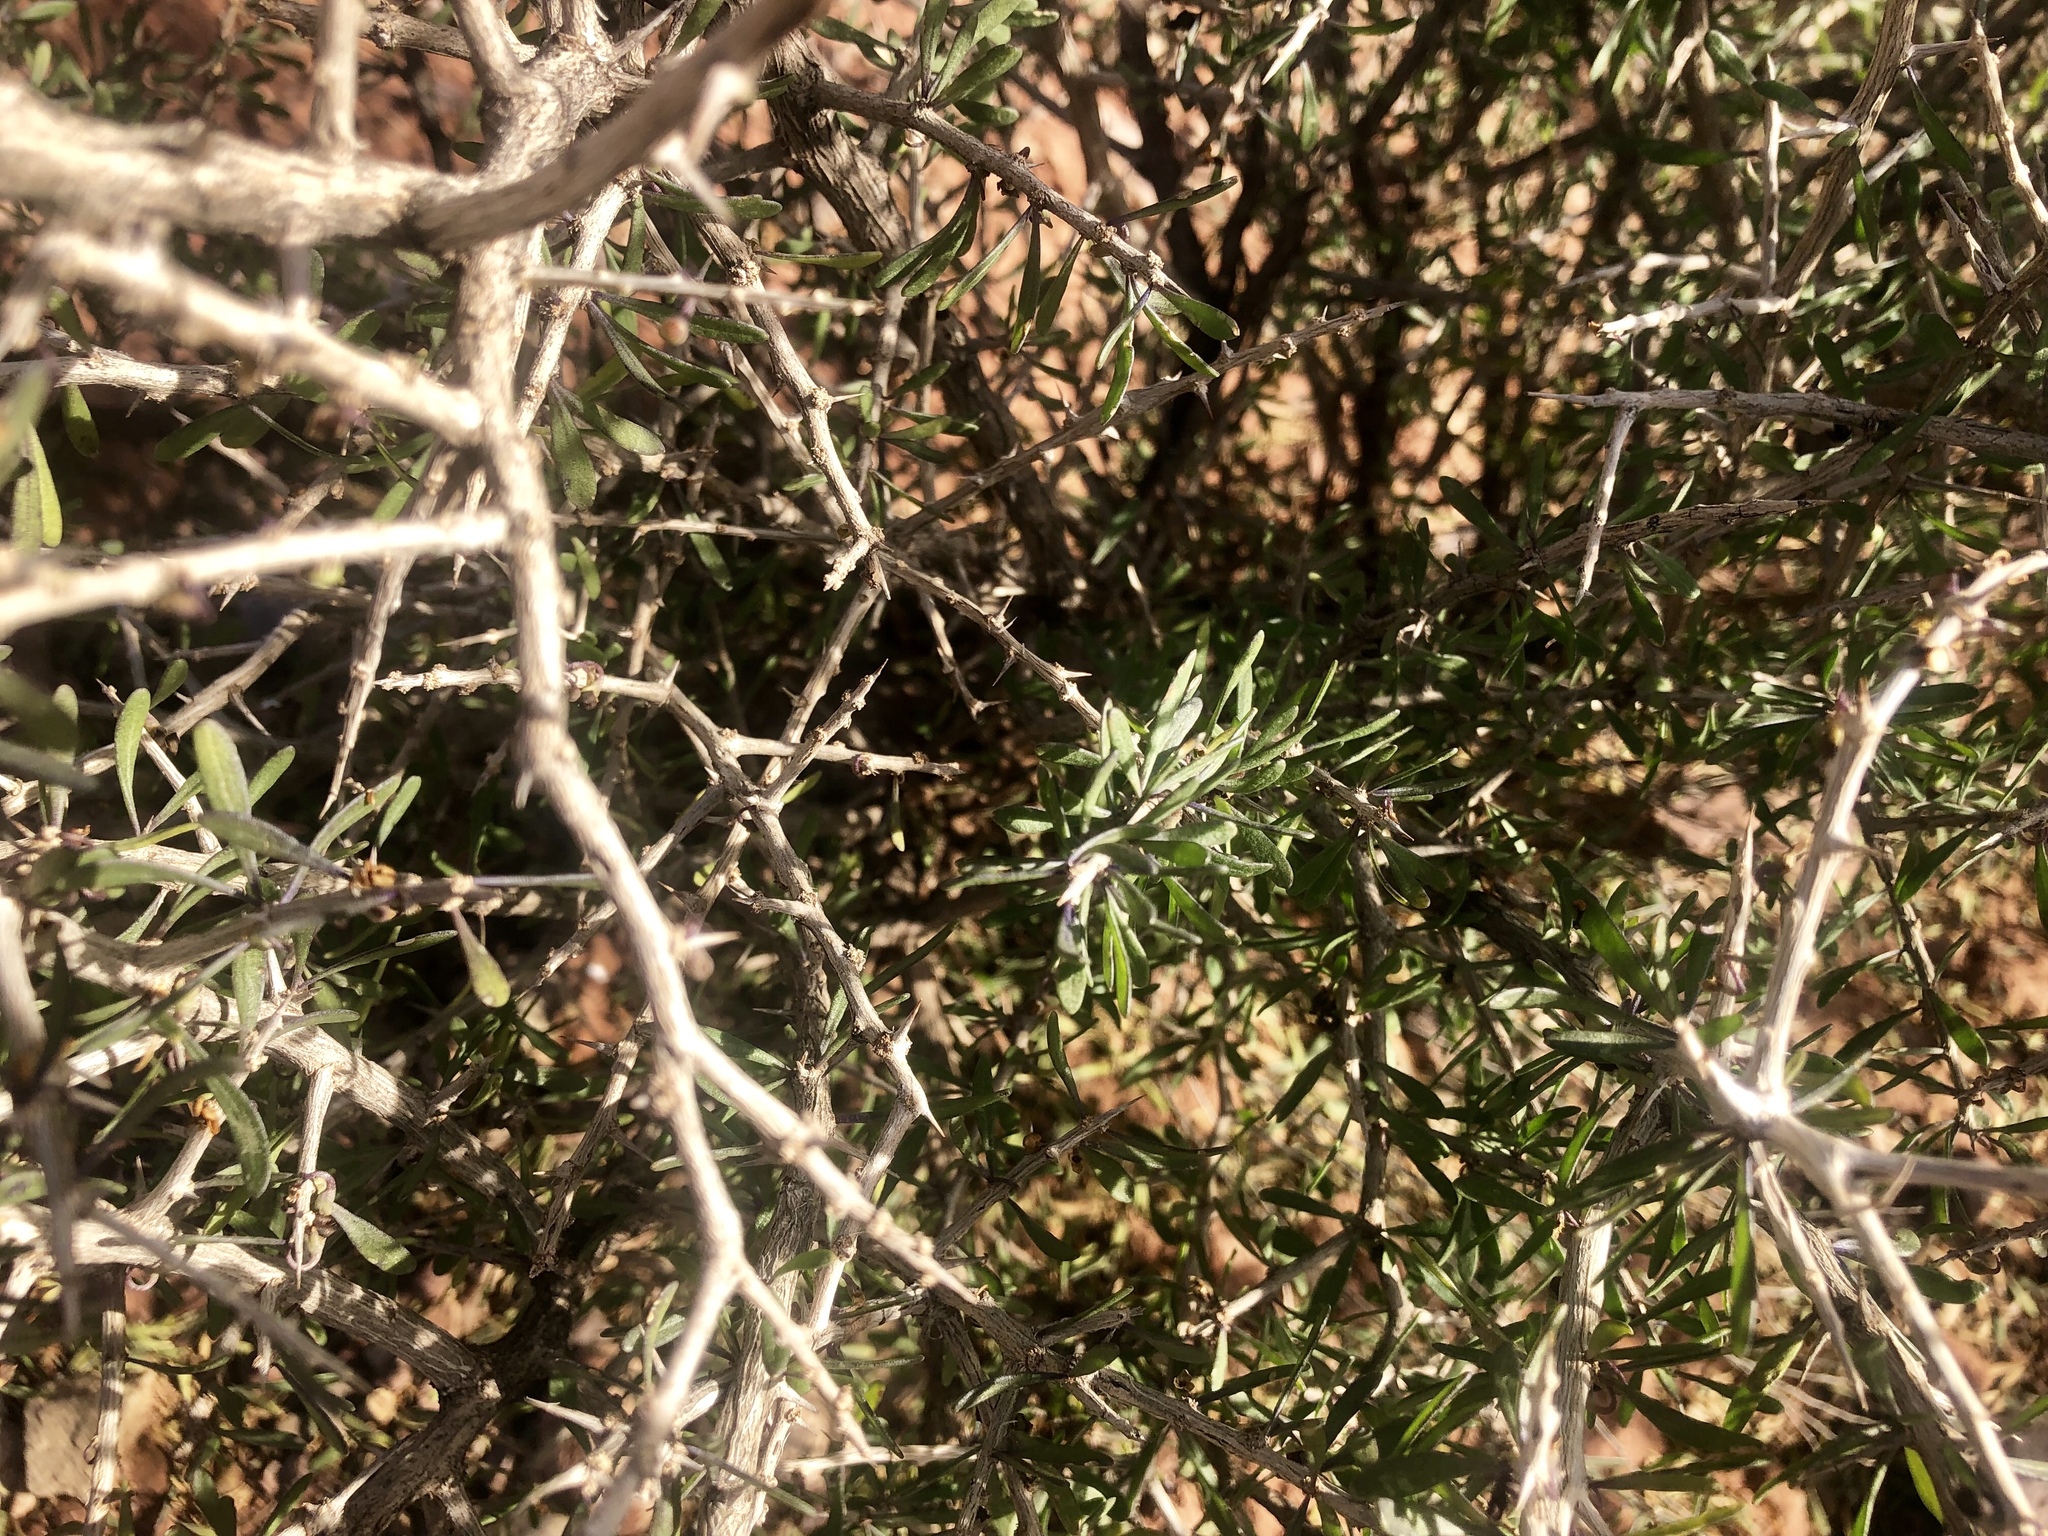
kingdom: Plantae
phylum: Tracheophyta
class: Magnoliopsida
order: Solanales
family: Solanaceae
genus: Lycium
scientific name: Lycium berlandieri
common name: Berlandier wolfberry
